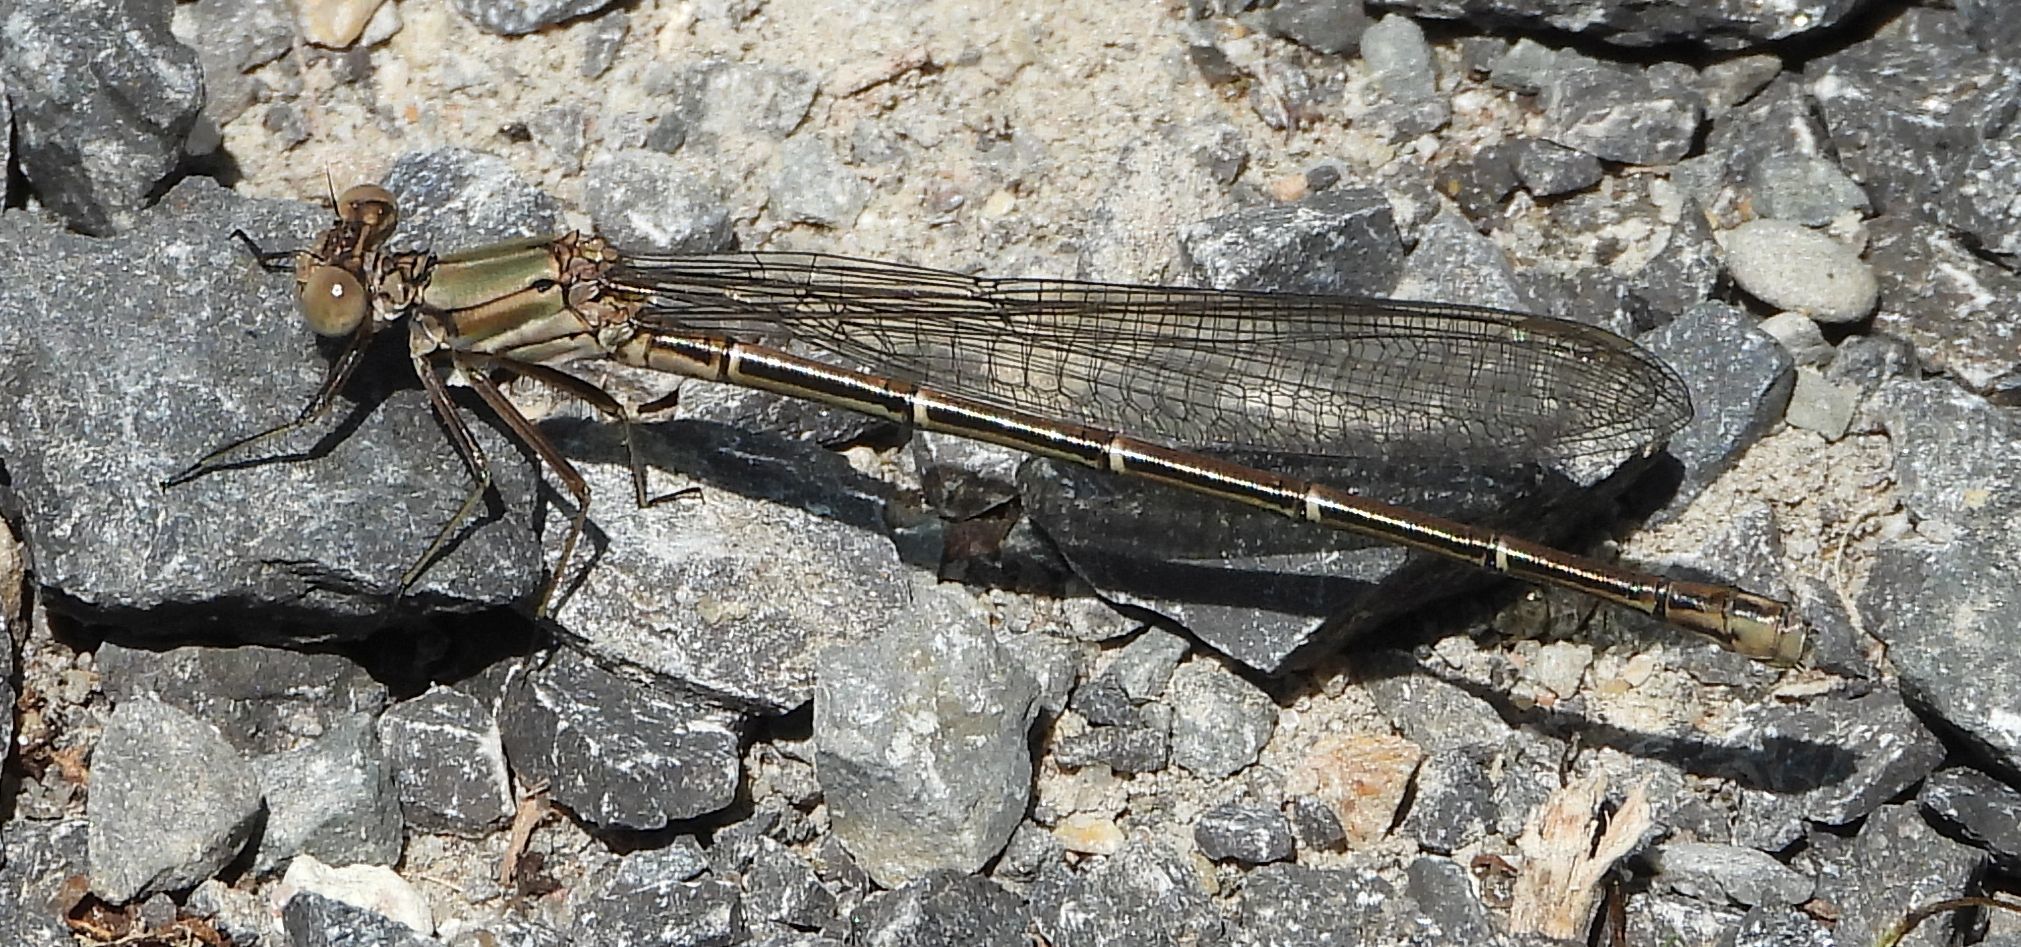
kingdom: Animalia
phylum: Arthropoda
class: Insecta
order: Odonata
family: Coenagrionidae
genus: Argia
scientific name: Argia moesta
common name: Powdered dancer
